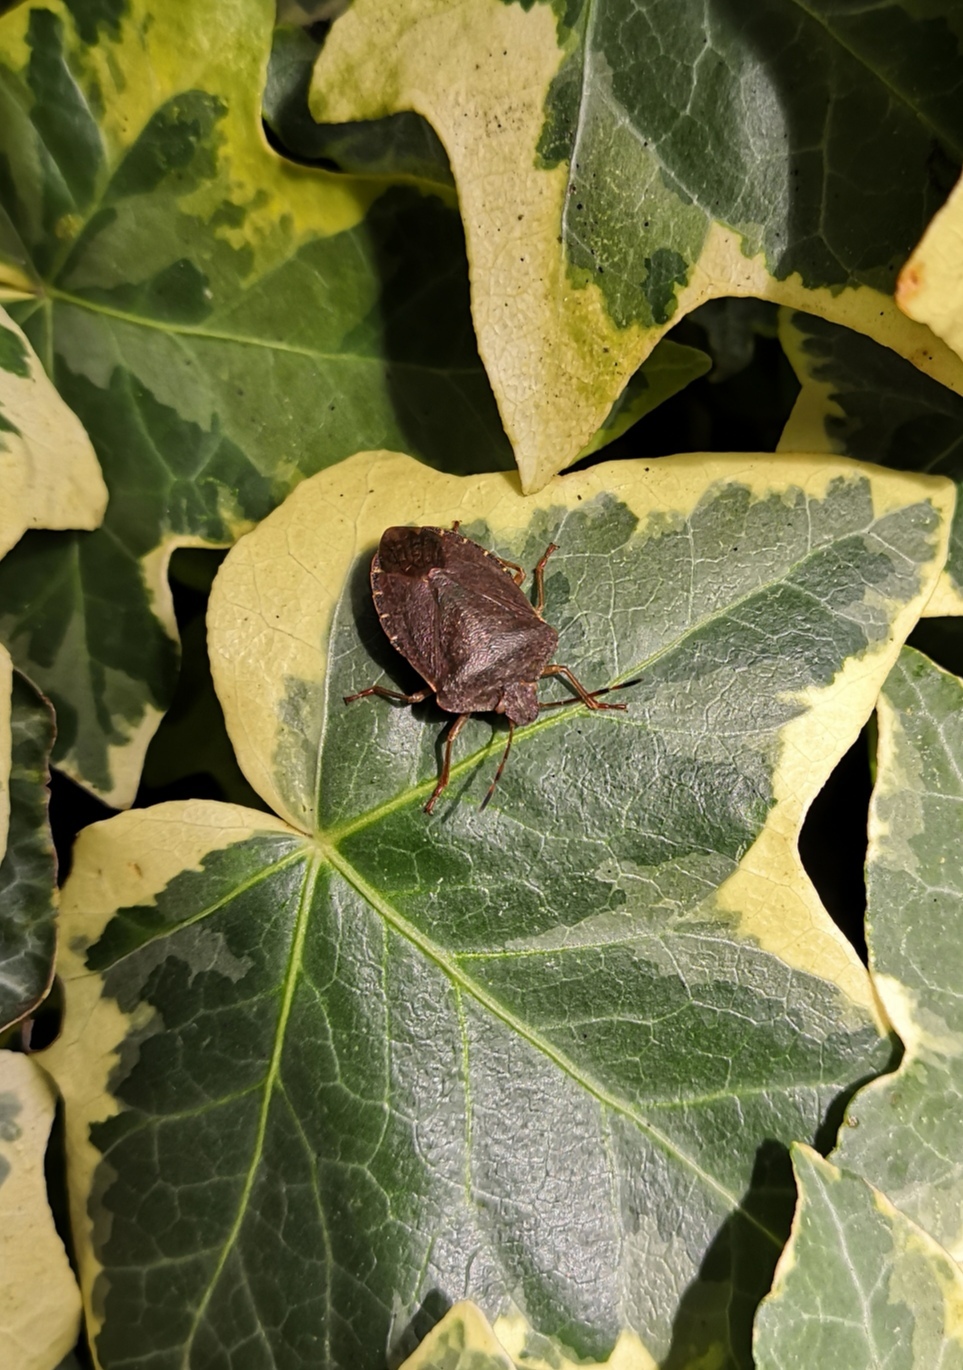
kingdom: Animalia
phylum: Arthropoda
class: Insecta
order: Hemiptera
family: Pentatomidae
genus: Palomena
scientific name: Palomena prasina
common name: Green shieldbug
